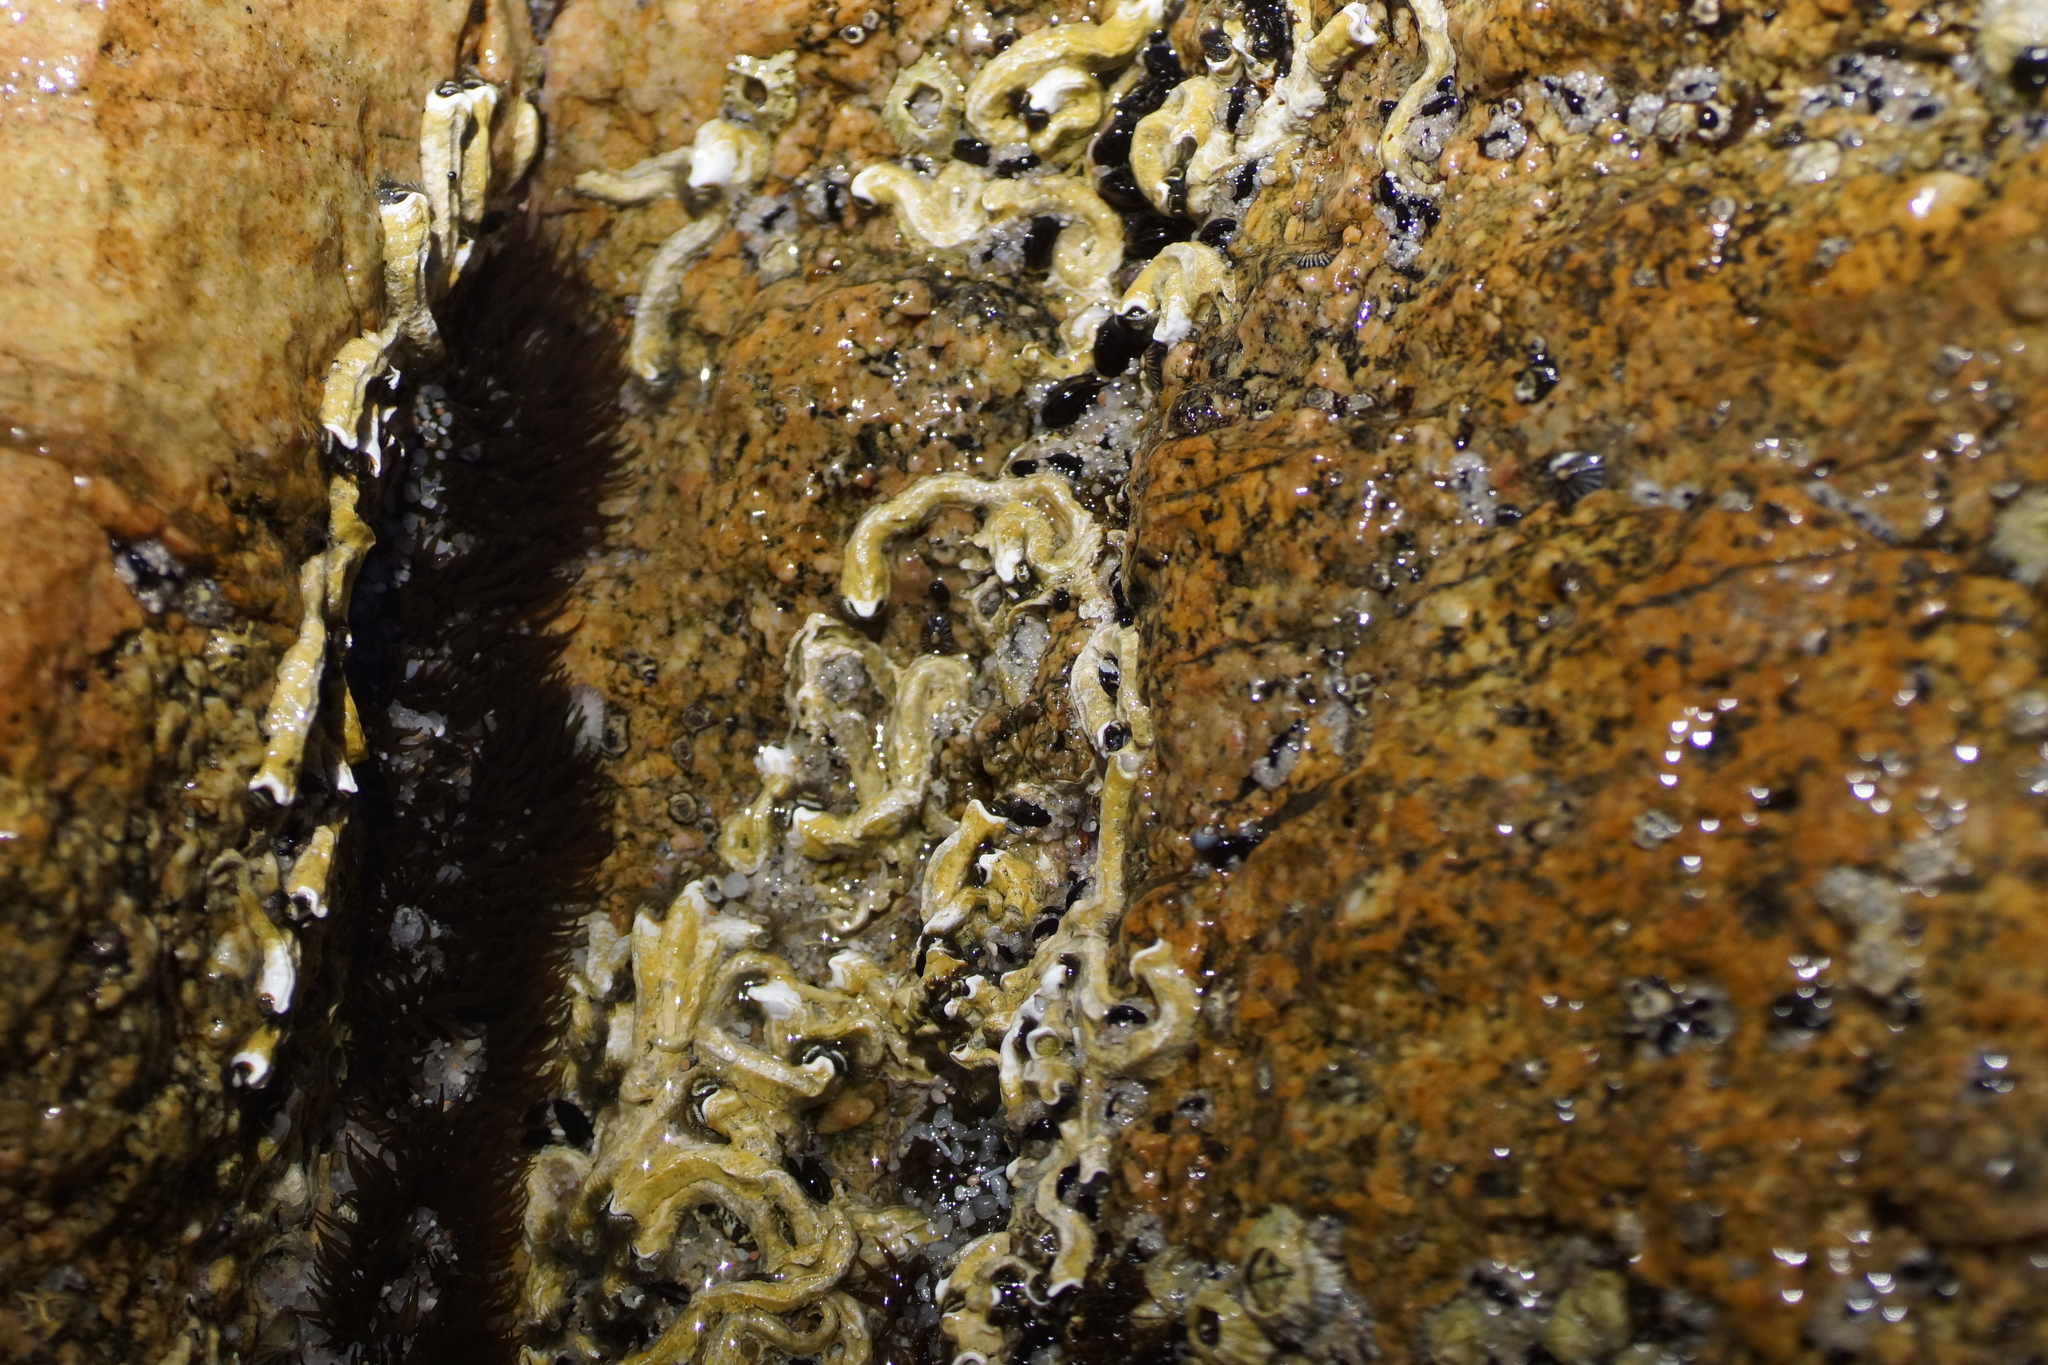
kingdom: Animalia
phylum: Annelida
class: Polychaeta
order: Sabellida
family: Serpulidae
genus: Galeolaria
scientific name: Galeolaria caespitosa
